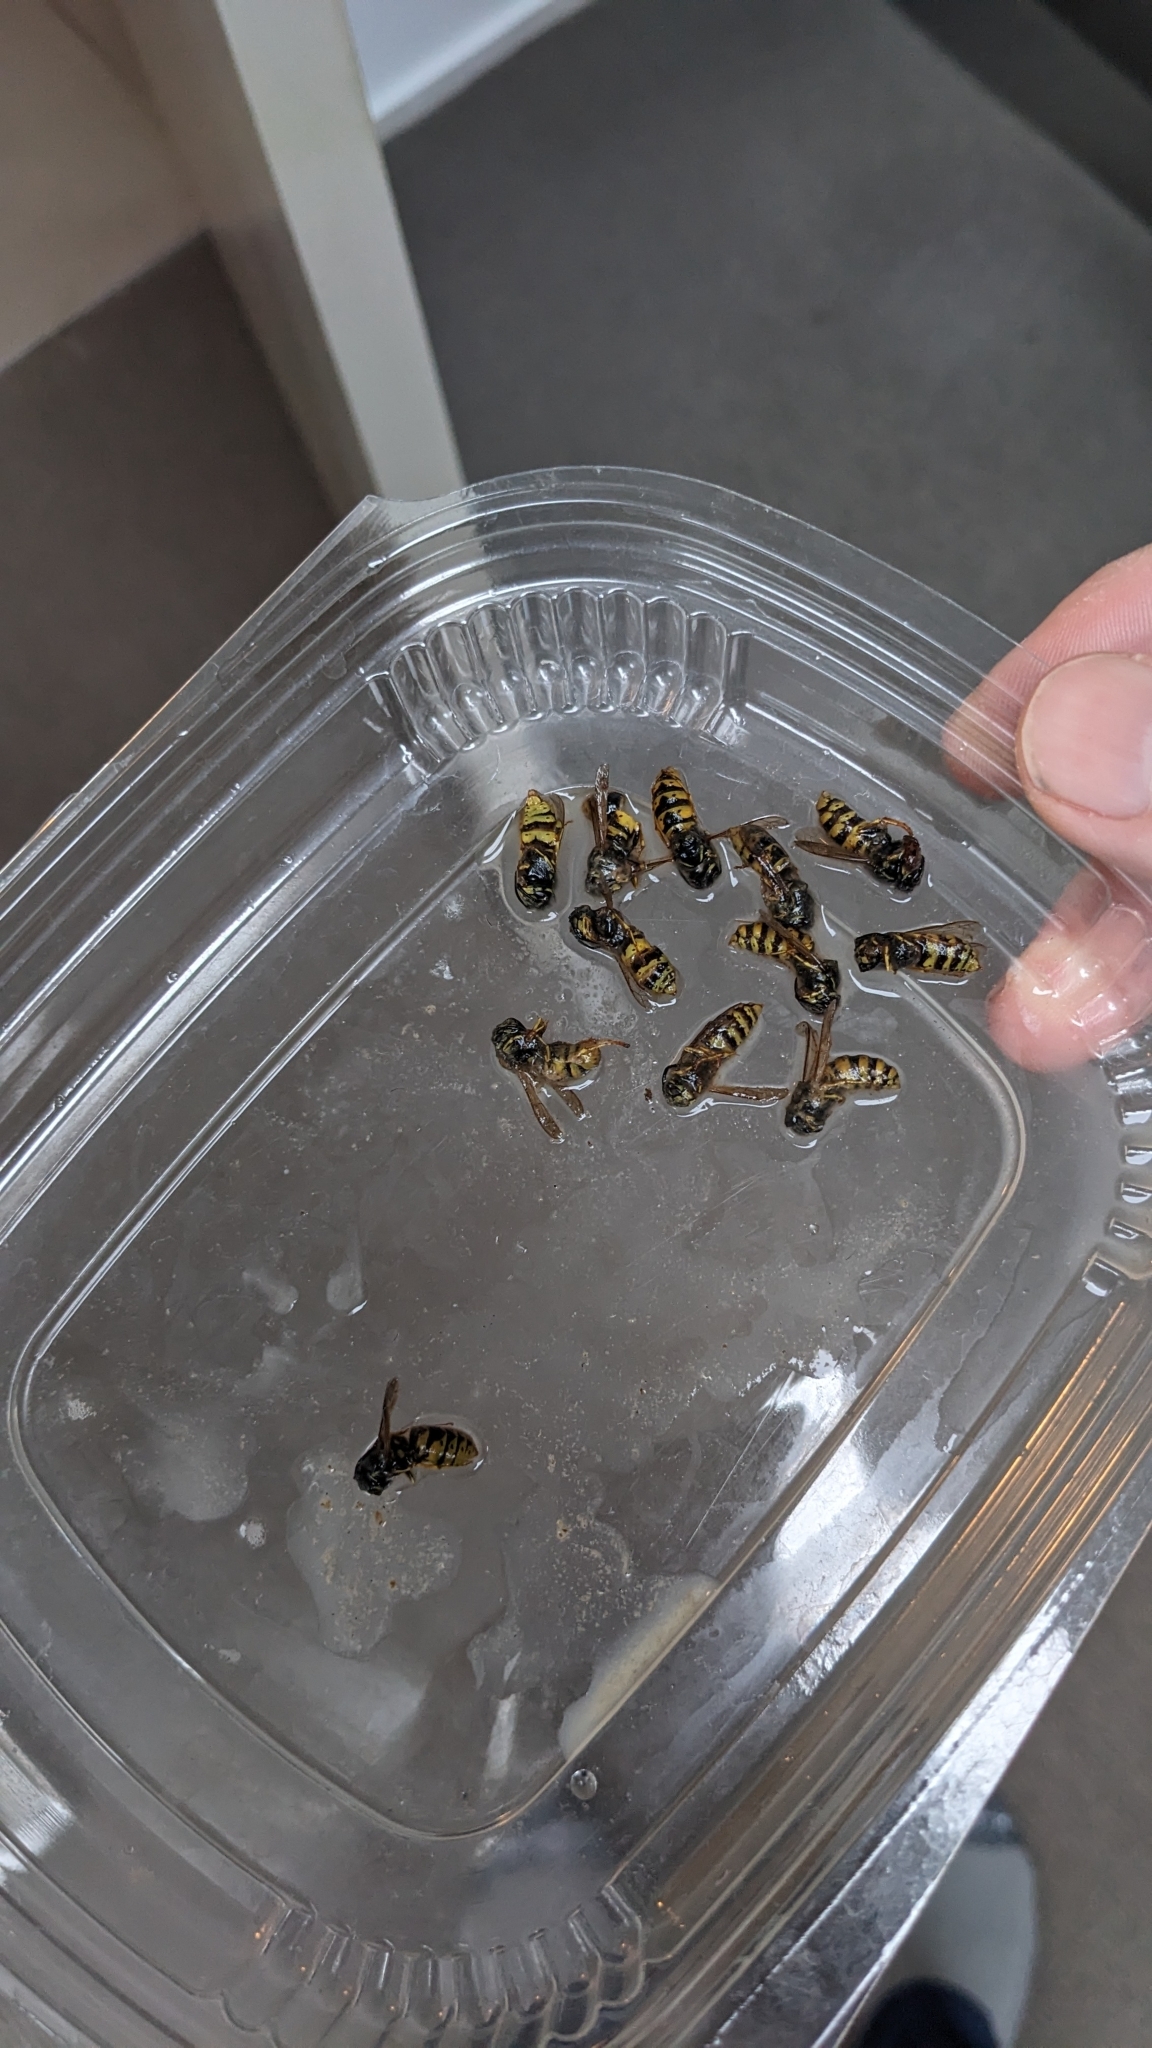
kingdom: Animalia
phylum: Arthropoda
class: Insecta
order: Hymenoptera
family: Vespidae
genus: Vespula
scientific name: Vespula vulgaris
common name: Common wasp
